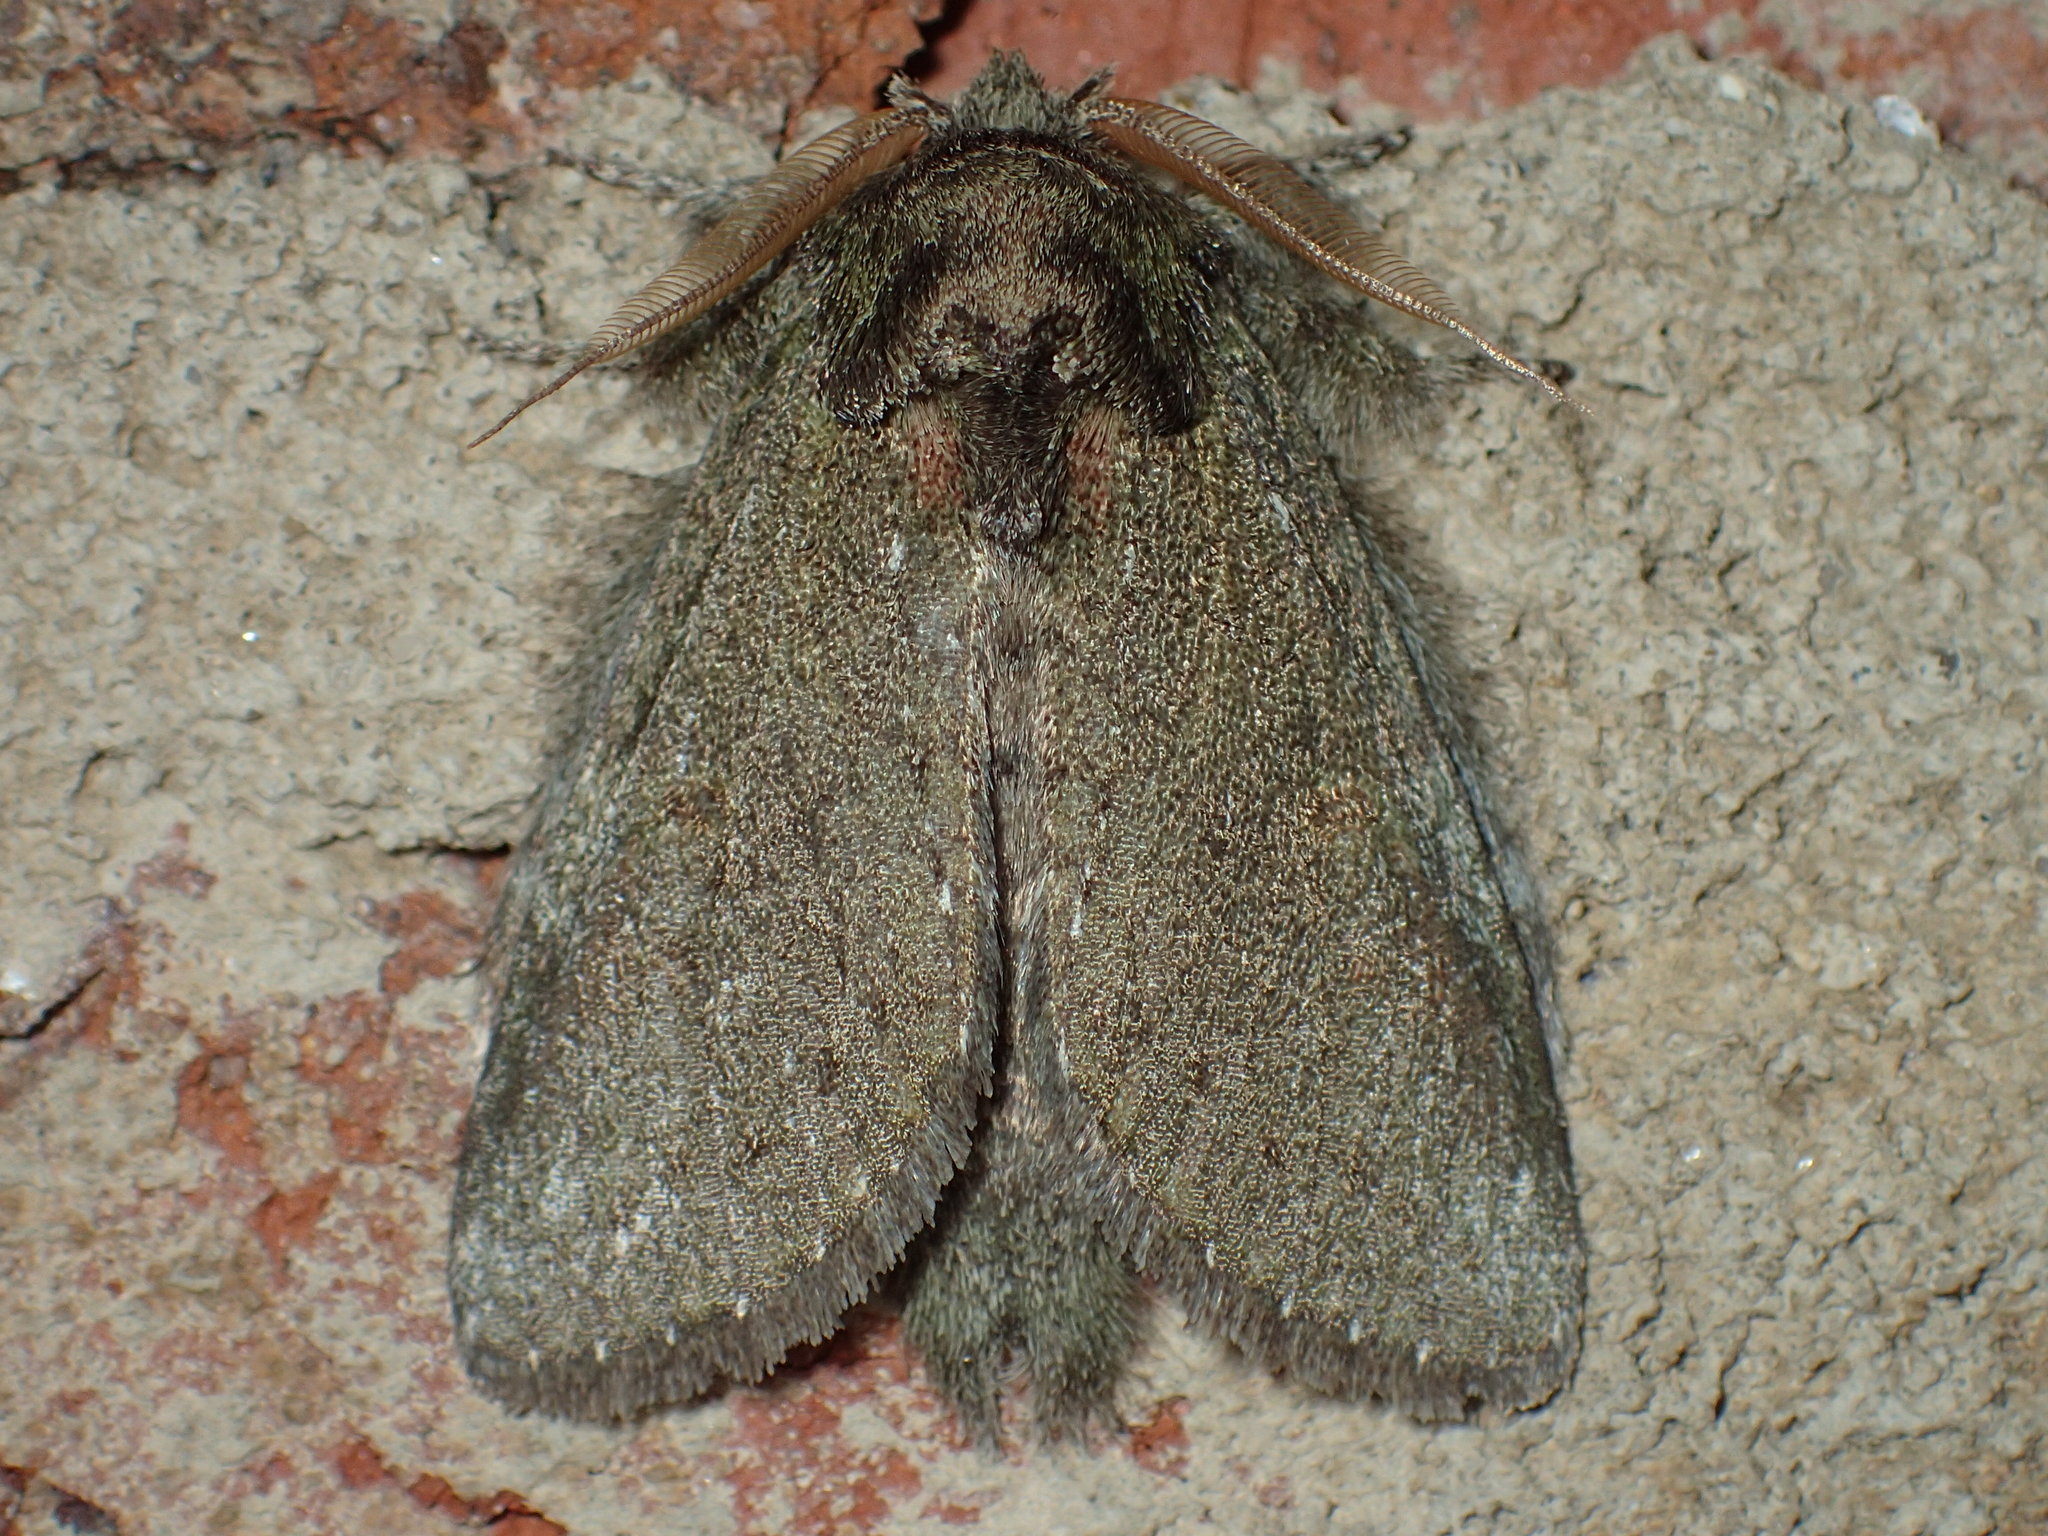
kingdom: Animalia
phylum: Arthropoda
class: Insecta
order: Lepidoptera
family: Notodontidae
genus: Disphragis
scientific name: Disphragis Cecrita guttivitta
